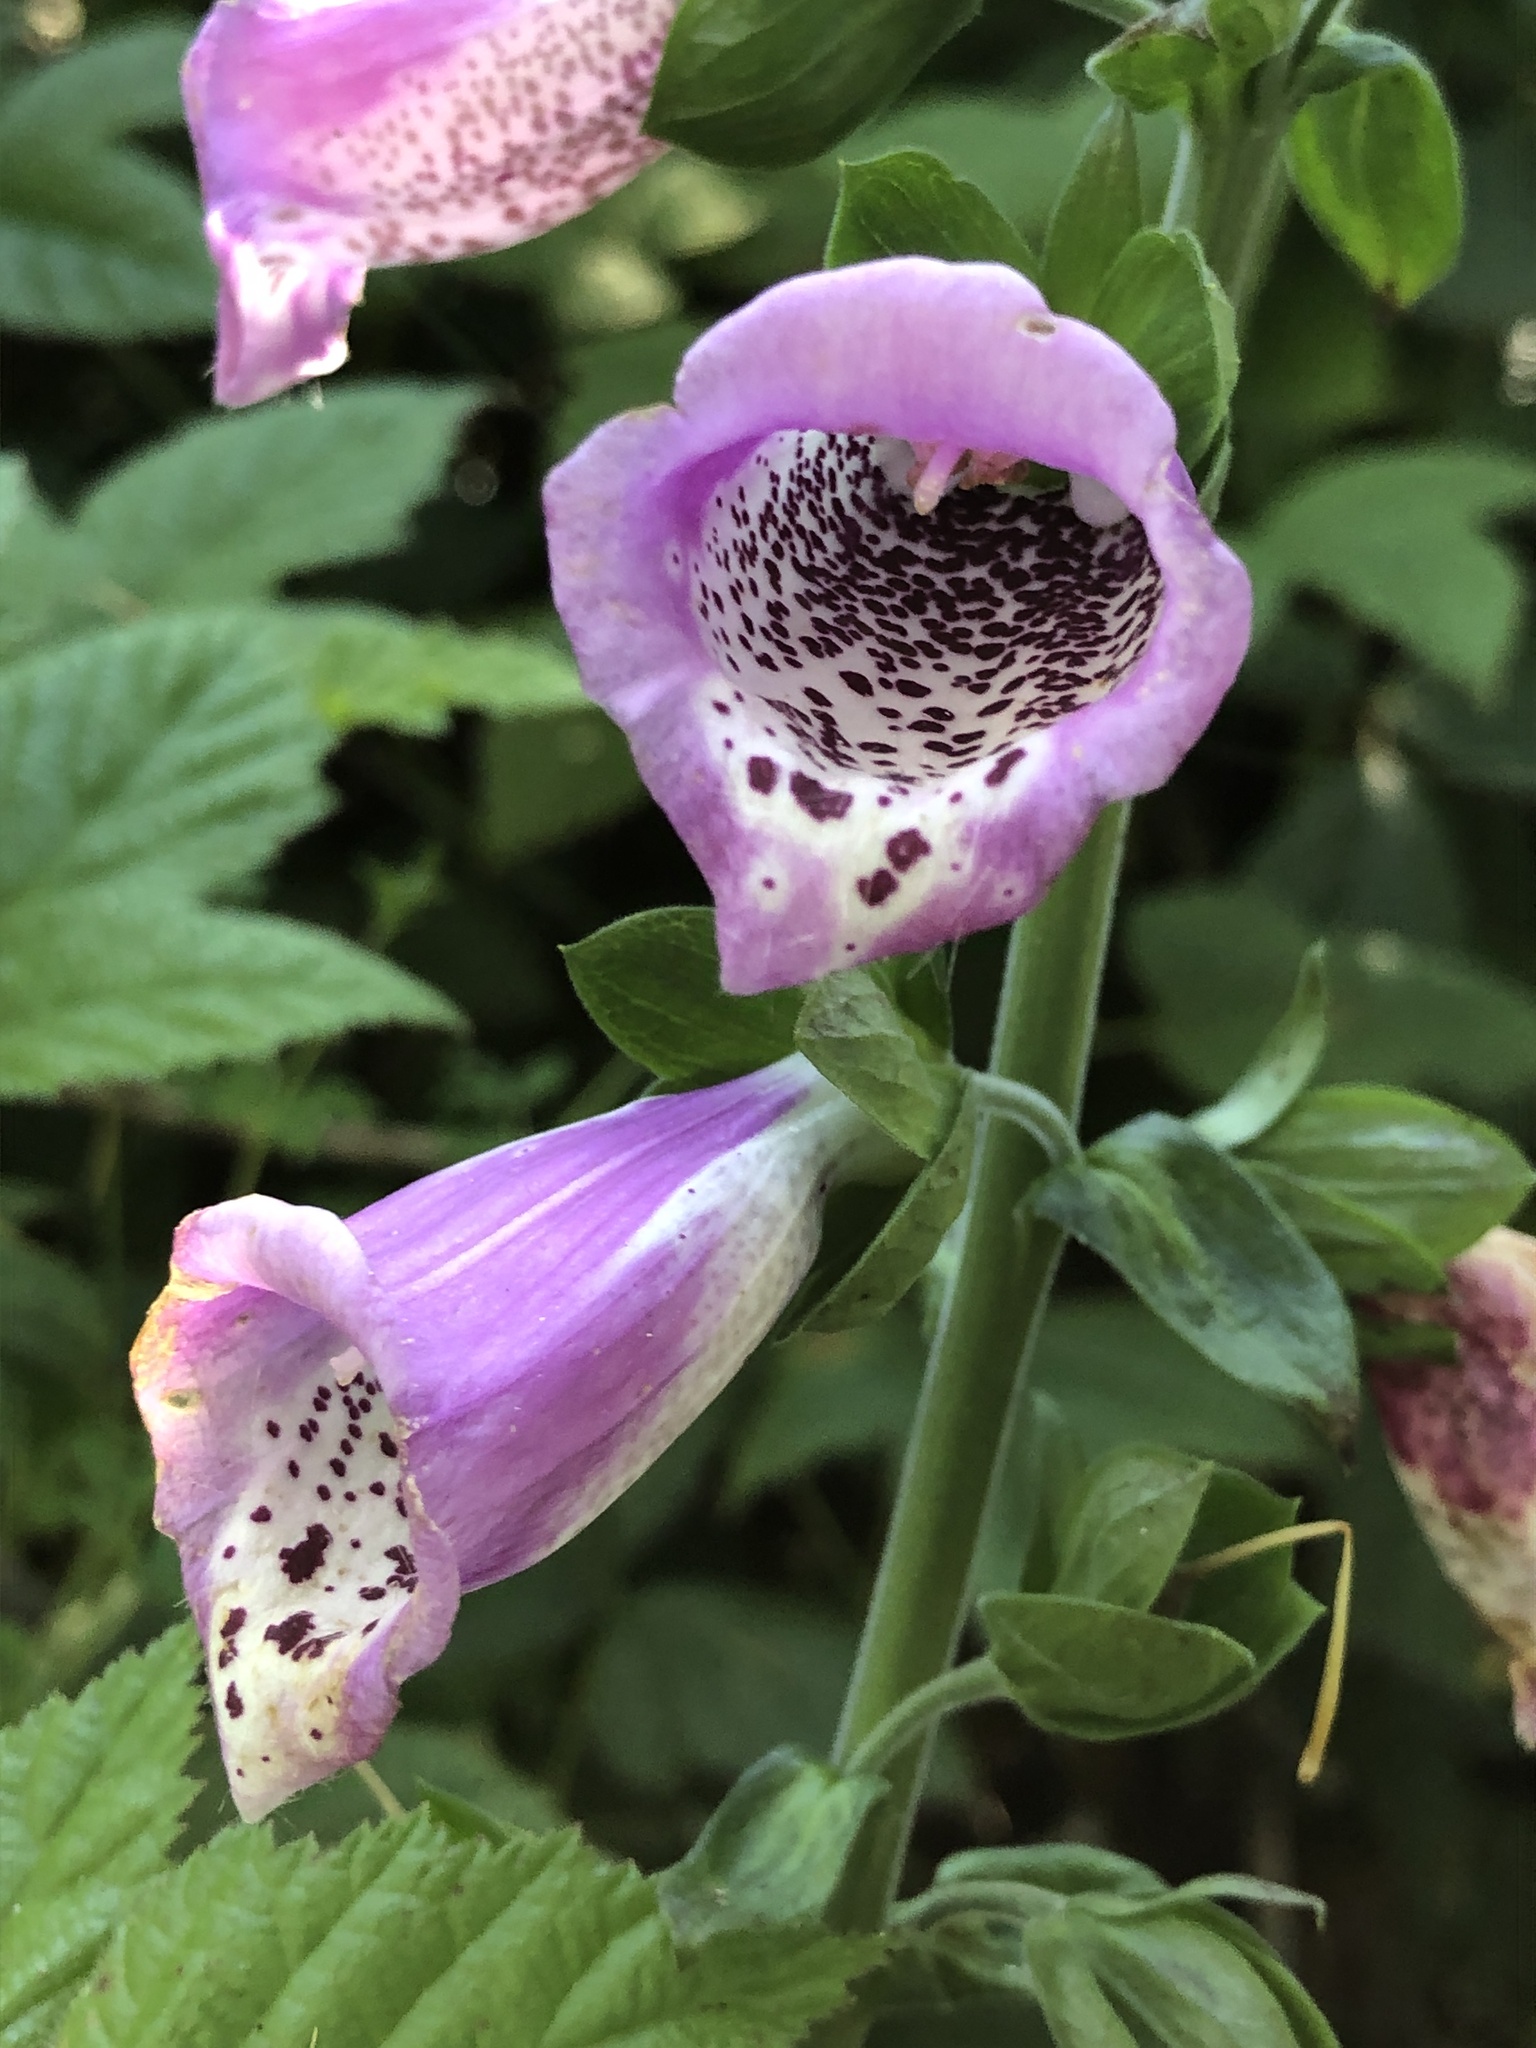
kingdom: Plantae
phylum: Tracheophyta
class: Magnoliopsida
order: Lamiales
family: Plantaginaceae
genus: Digitalis
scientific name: Digitalis purpurea
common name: Foxglove
